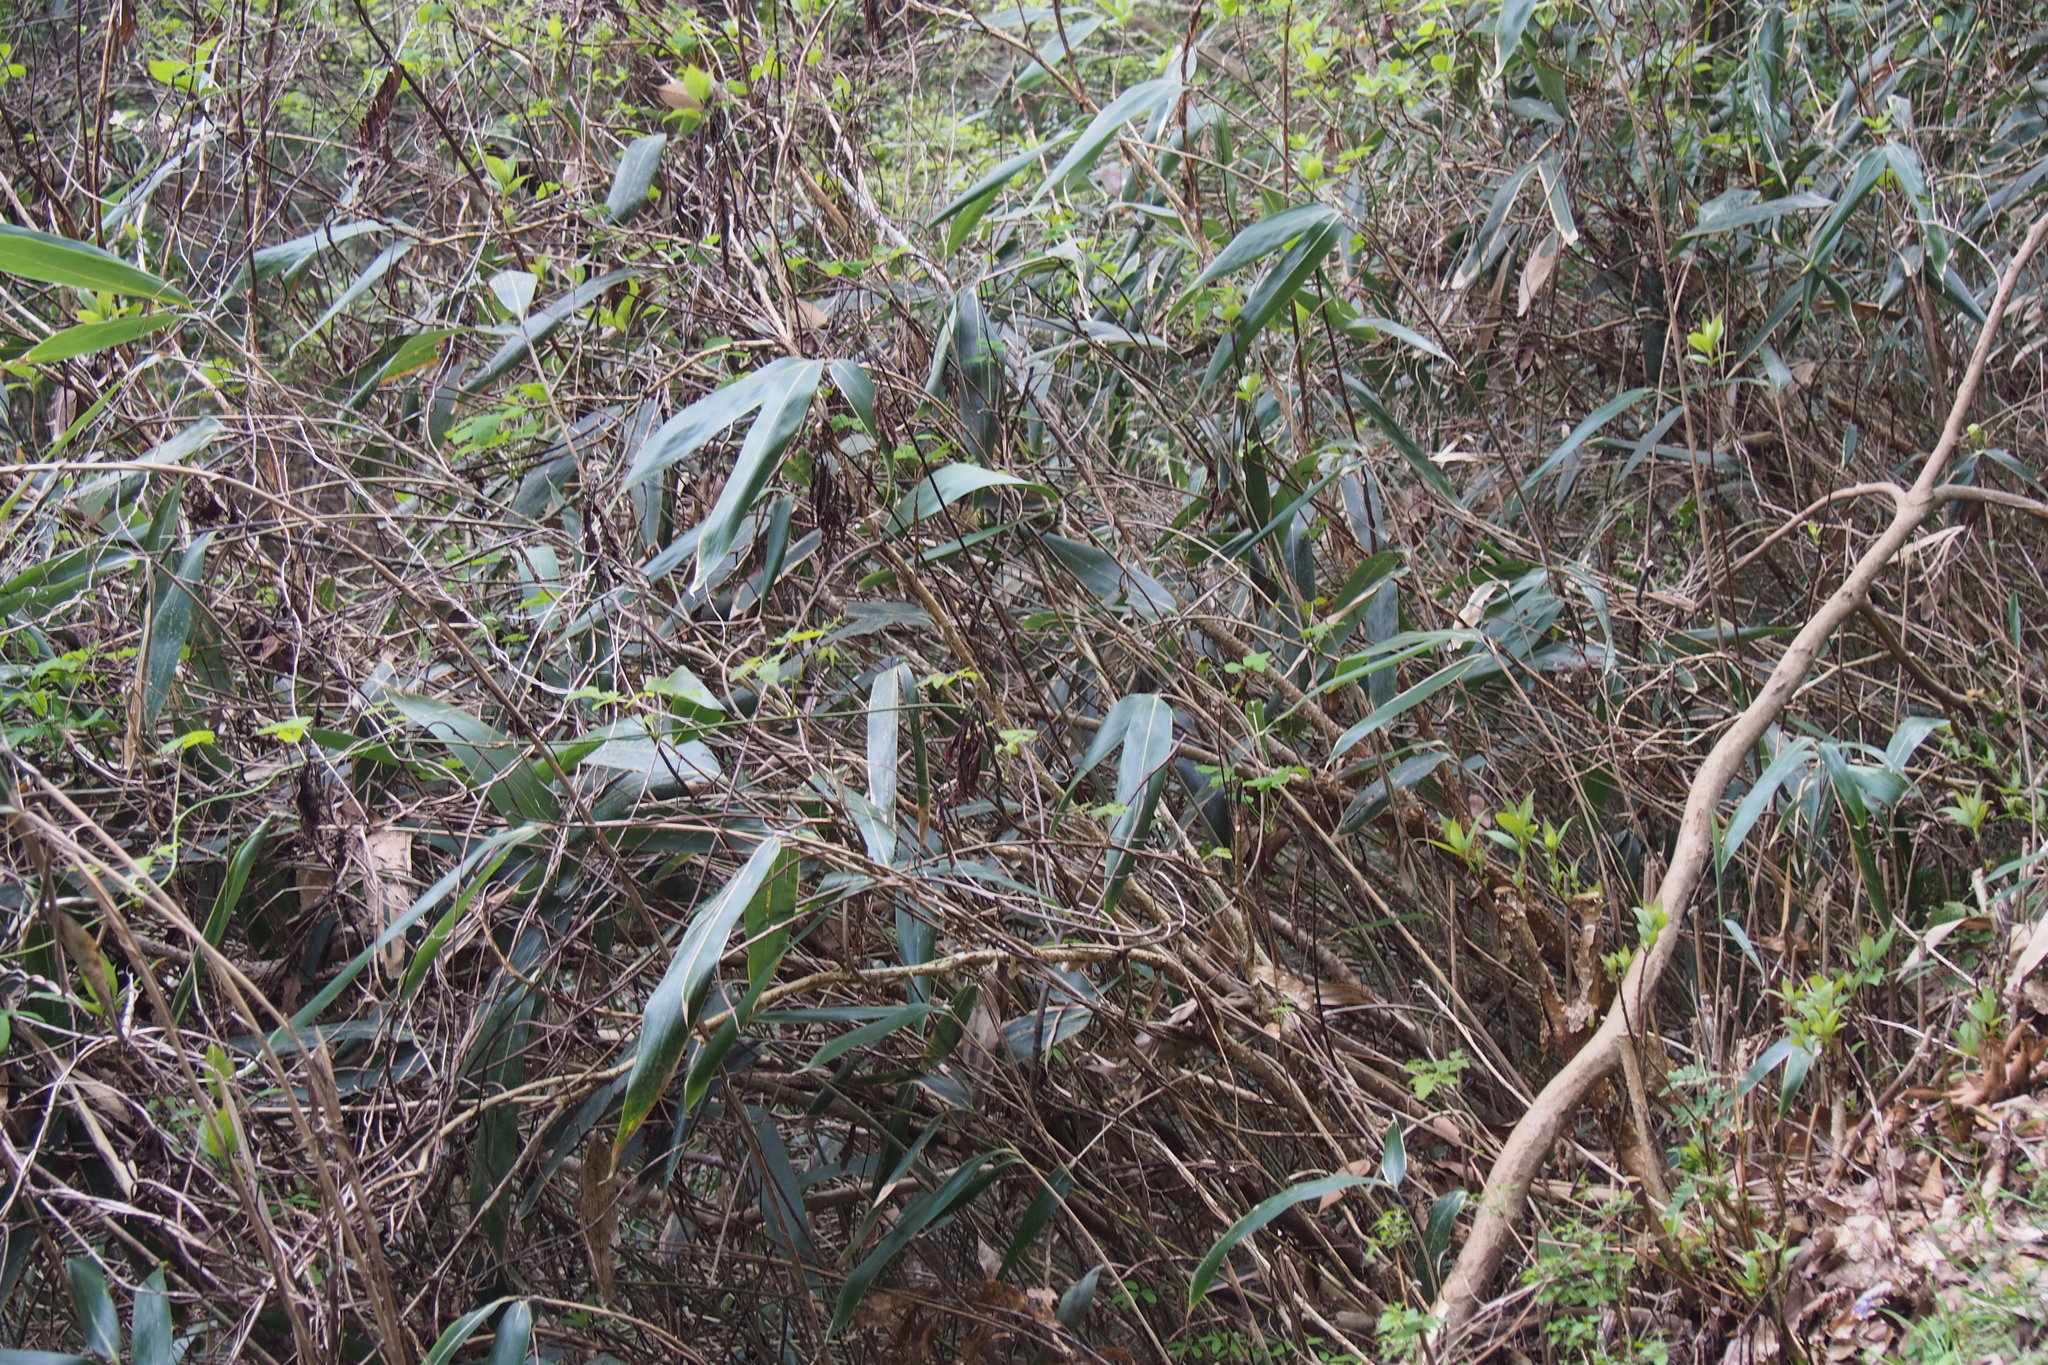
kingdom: Plantae
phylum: Tracheophyta
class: Liliopsida
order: Poales
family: Poaceae
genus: Sasamorpha
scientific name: Sasamorpha borealis
